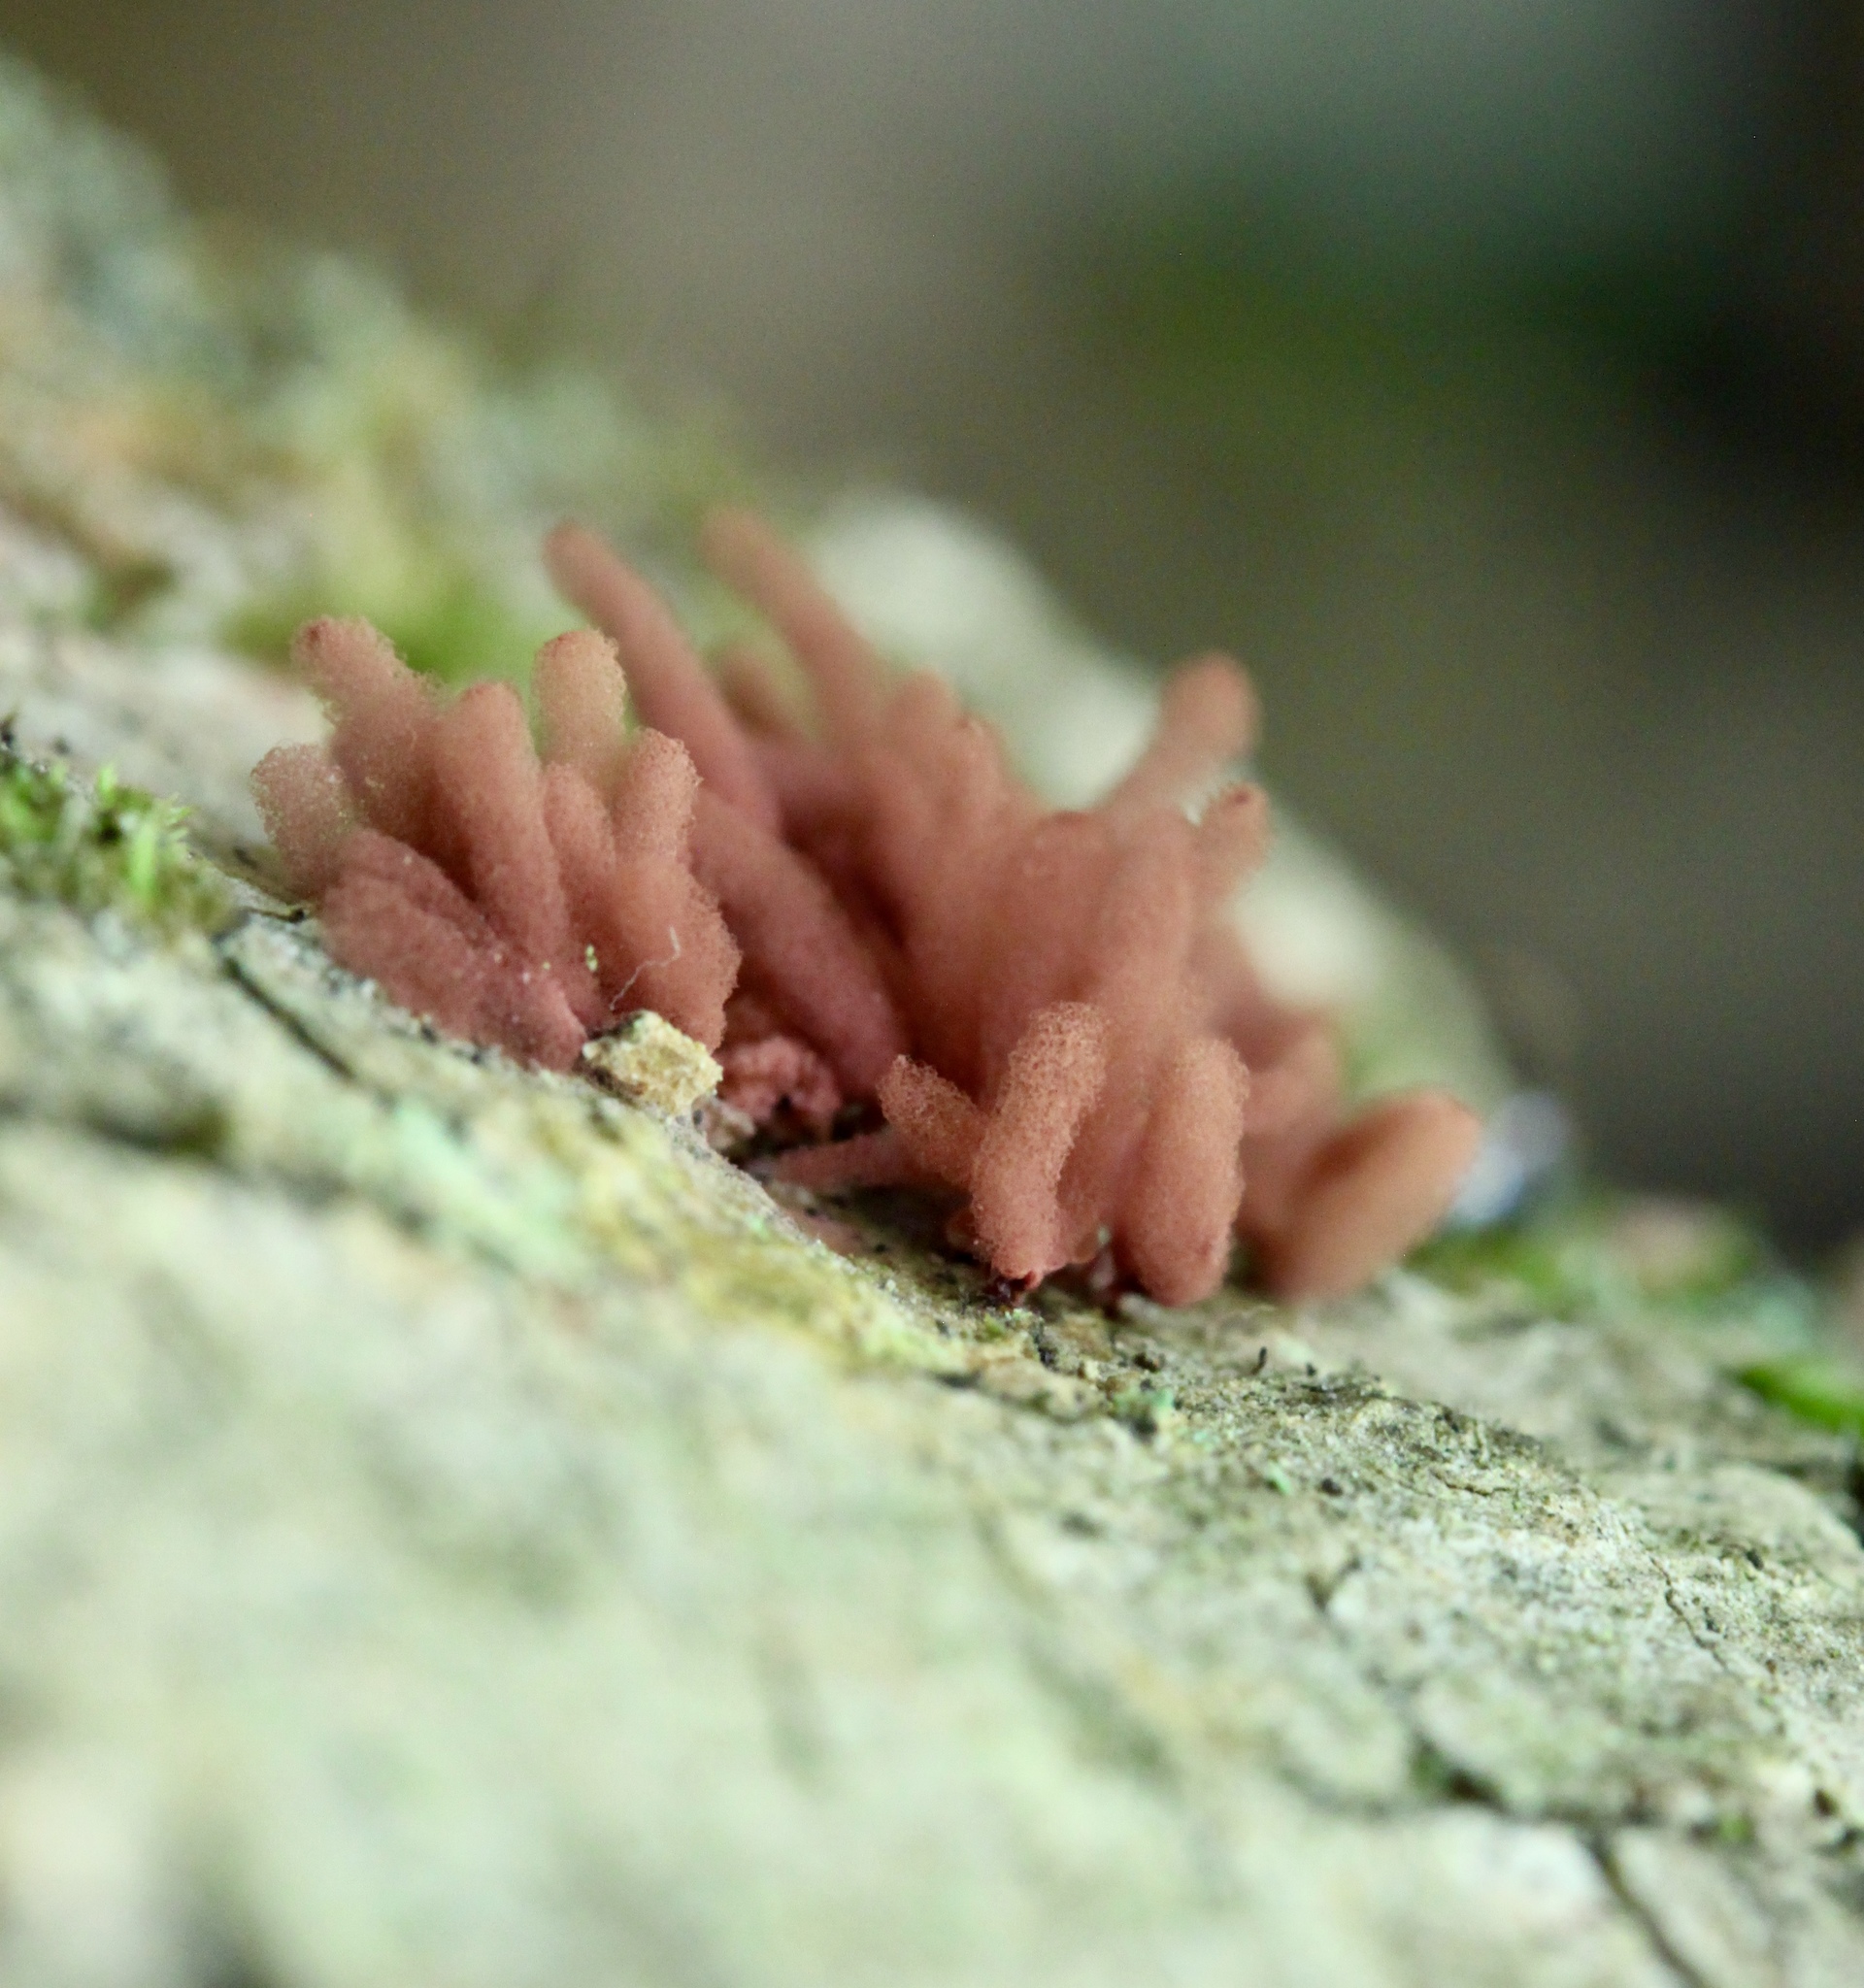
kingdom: Protozoa
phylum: Mycetozoa
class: Myxomycetes
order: Trichiales
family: Arcyriaceae
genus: Arcyria
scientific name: Arcyria denudata
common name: Carnival candy slime mold
